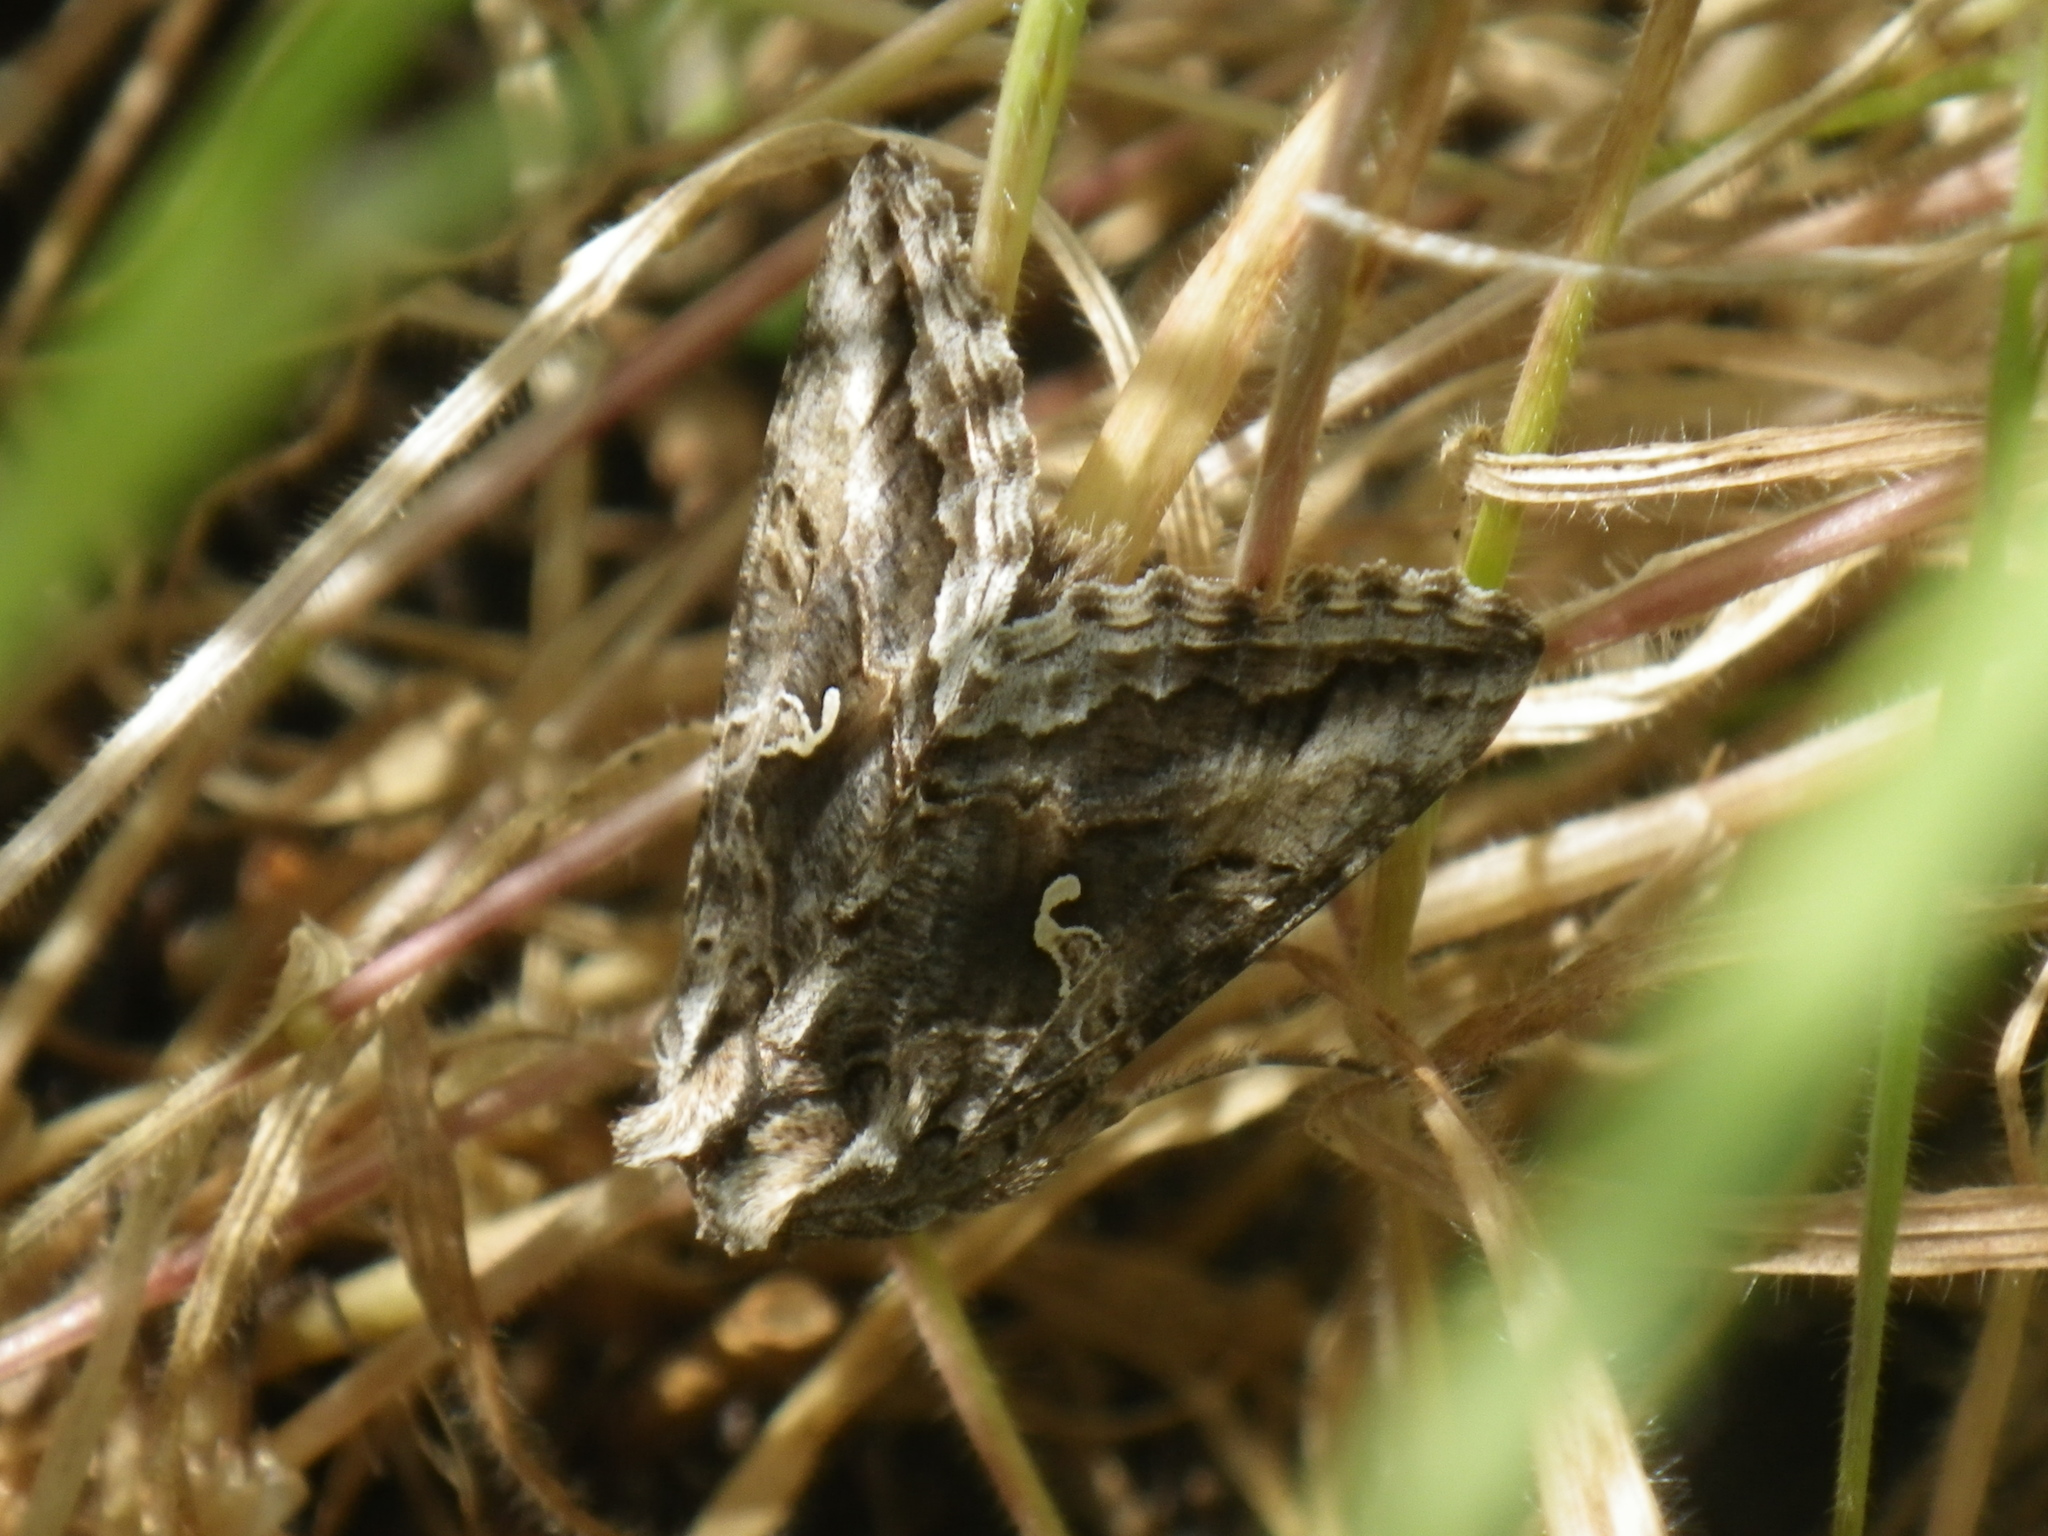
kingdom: Animalia
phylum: Arthropoda
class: Insecta
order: Lepidoptera
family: Noctuidae
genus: Autographa
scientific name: Autographa californica
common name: Alfalfa looper
